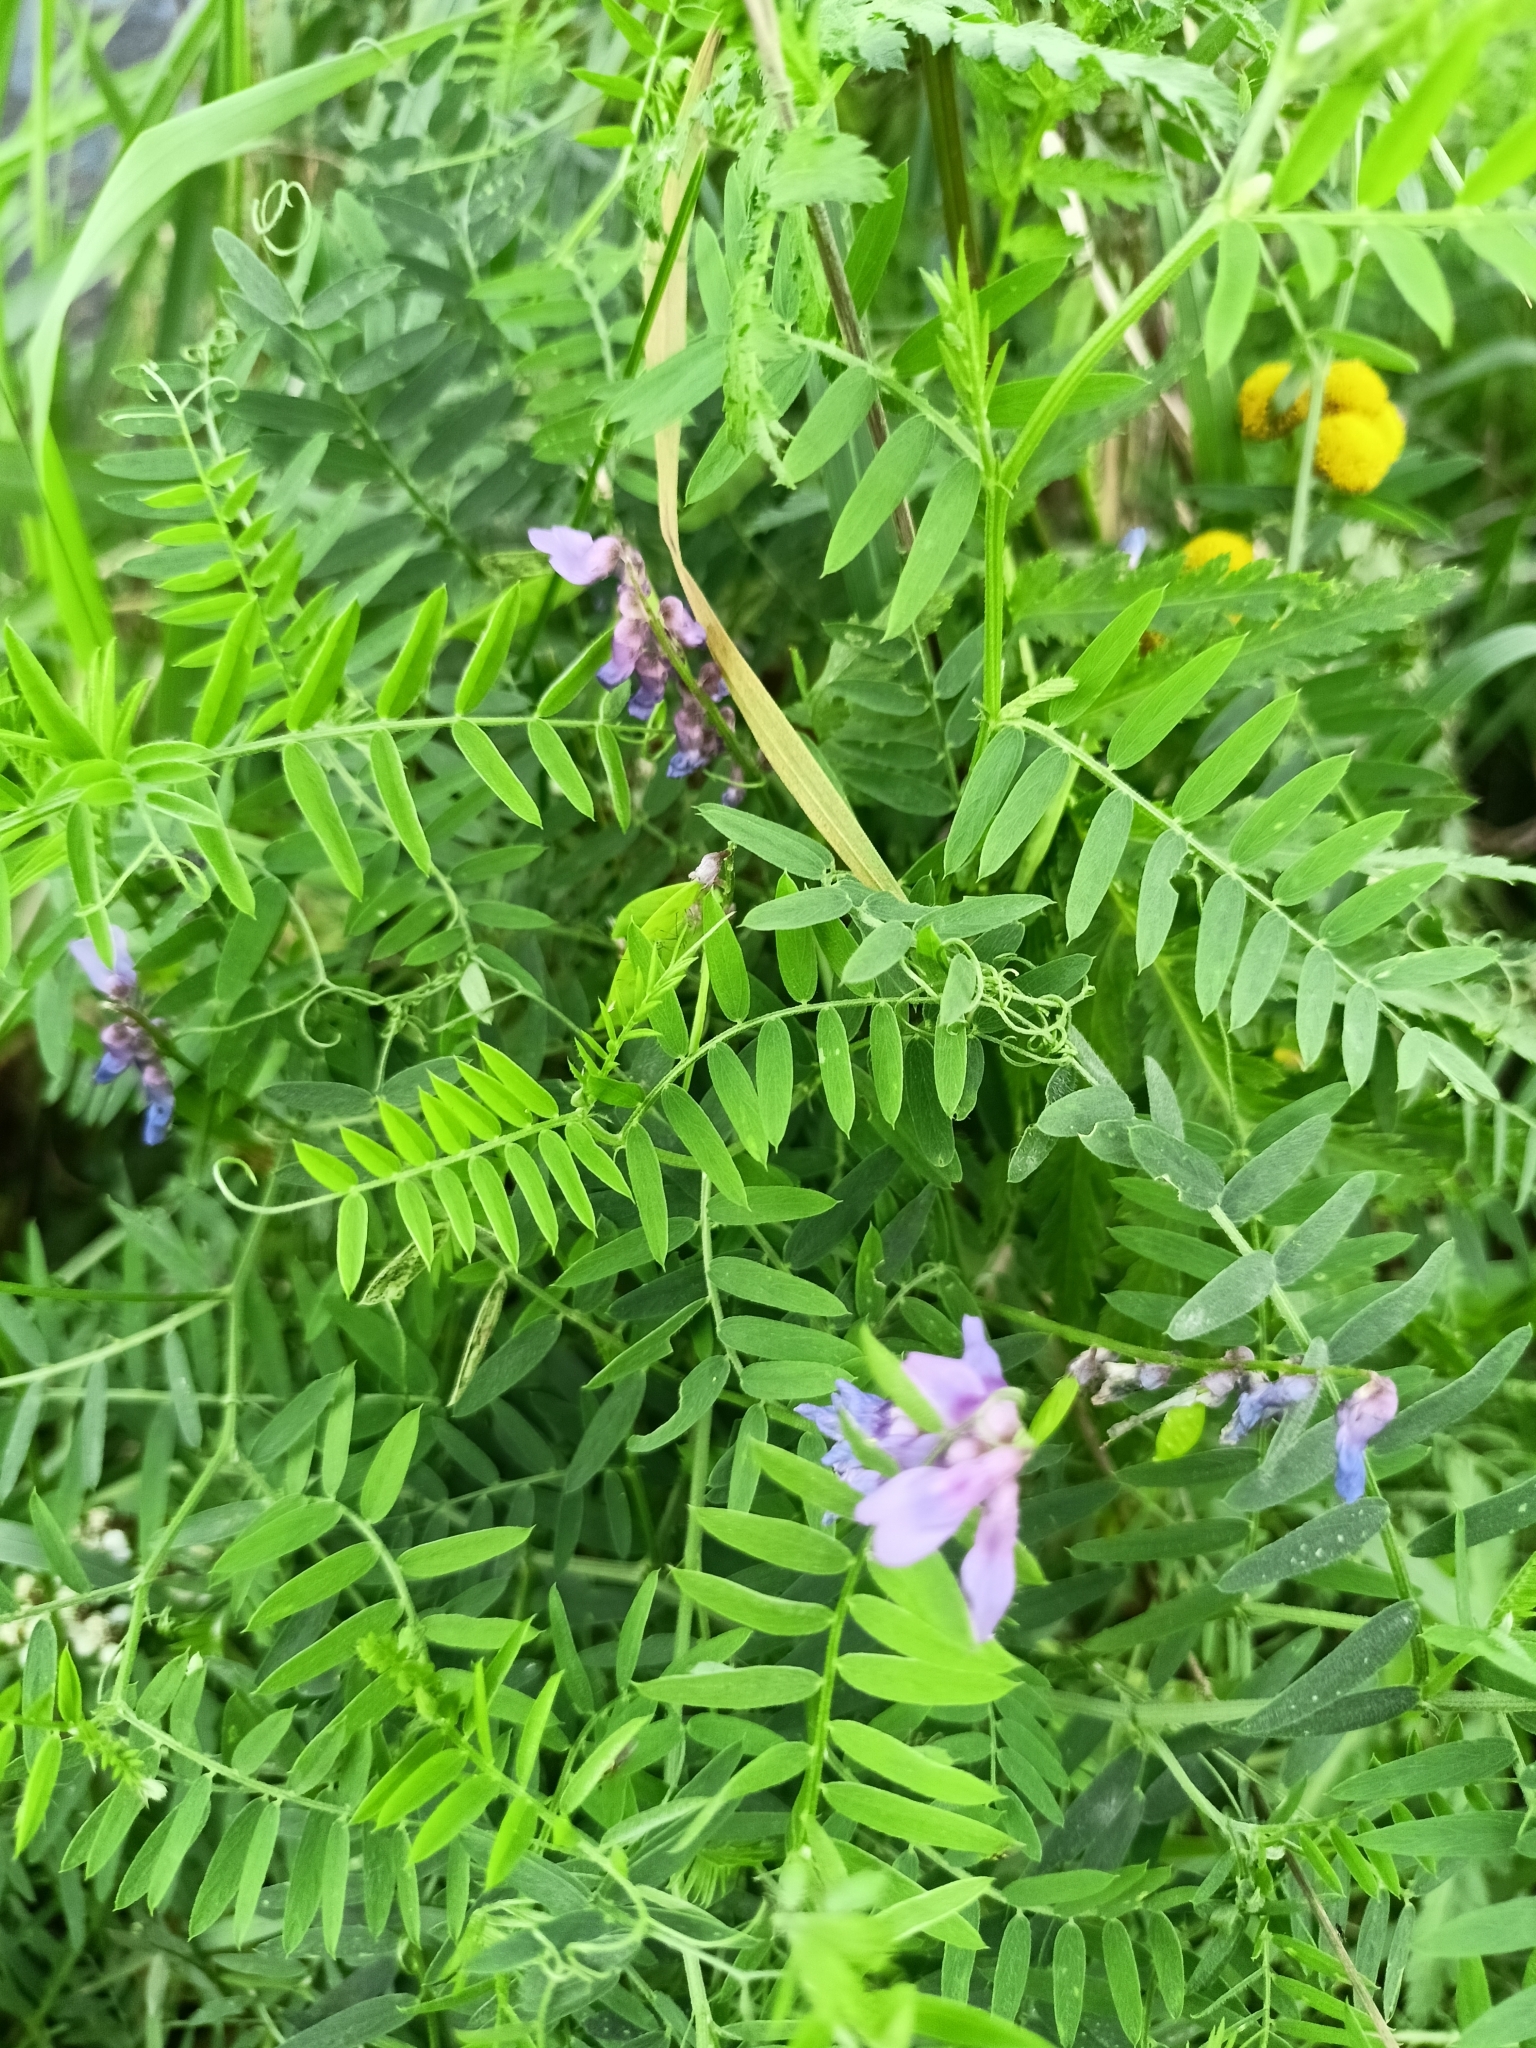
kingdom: Plantae
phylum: Tracheophyta
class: Magnoliopsida
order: Fabales
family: Fabaceae
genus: Vicia
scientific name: Vicia cracca
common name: Bird vetch
